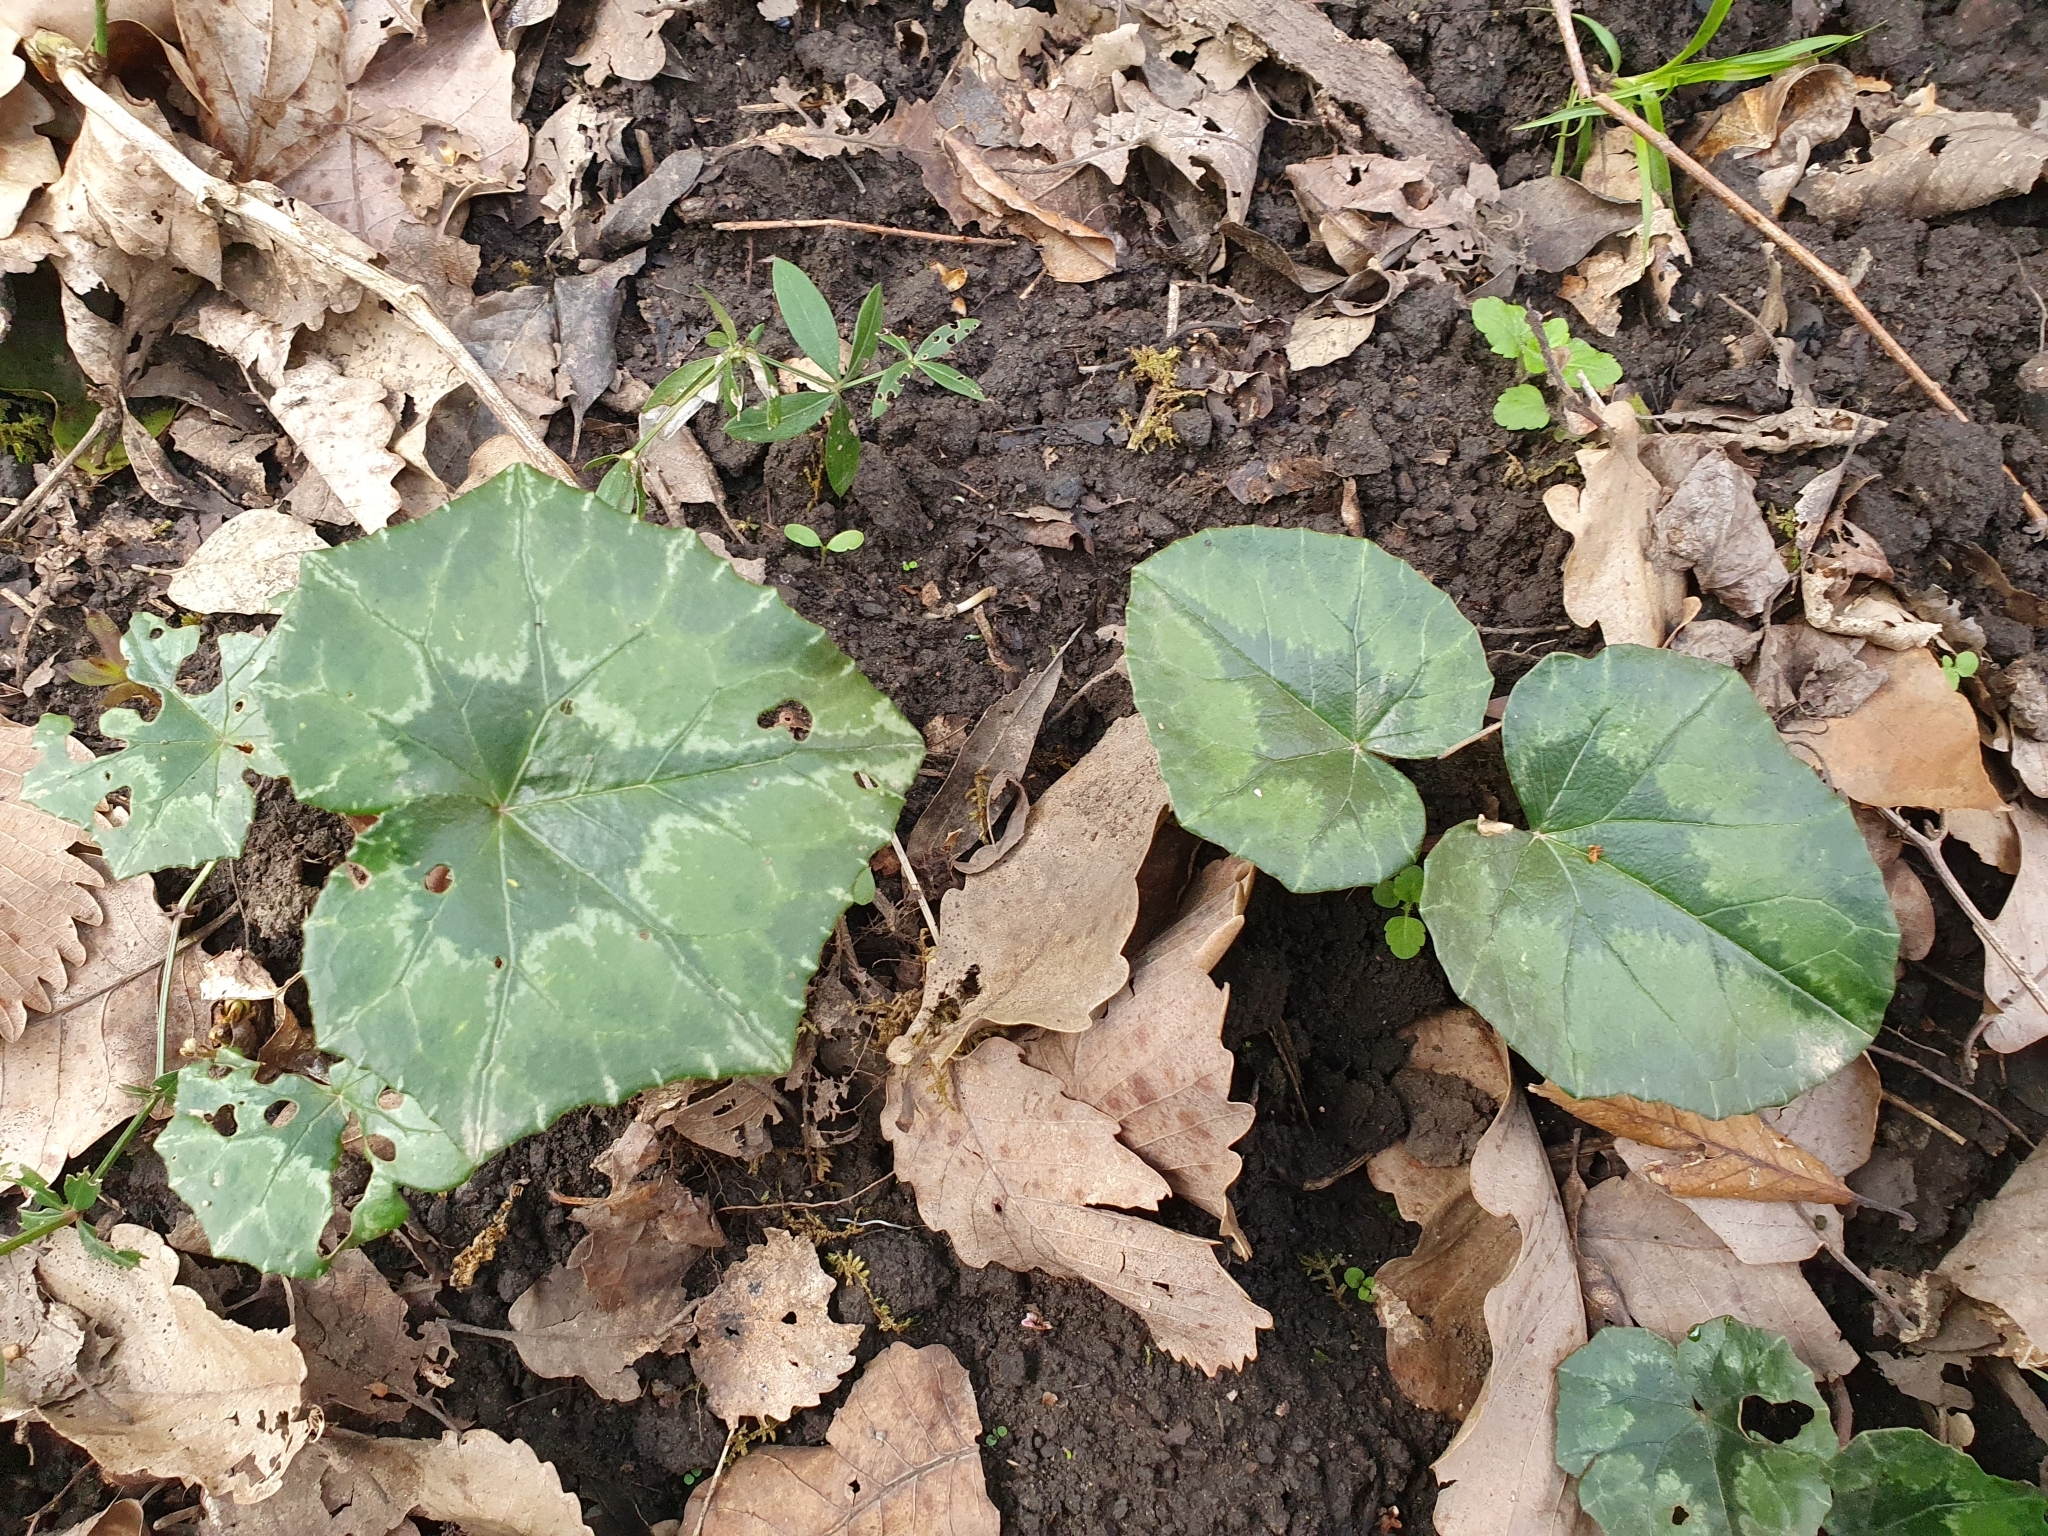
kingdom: Plantae
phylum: Tracheophyta
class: Magnoliopsida
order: Ericales
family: Primulaceae
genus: Cyclamen
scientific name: Cyclamen africanum
